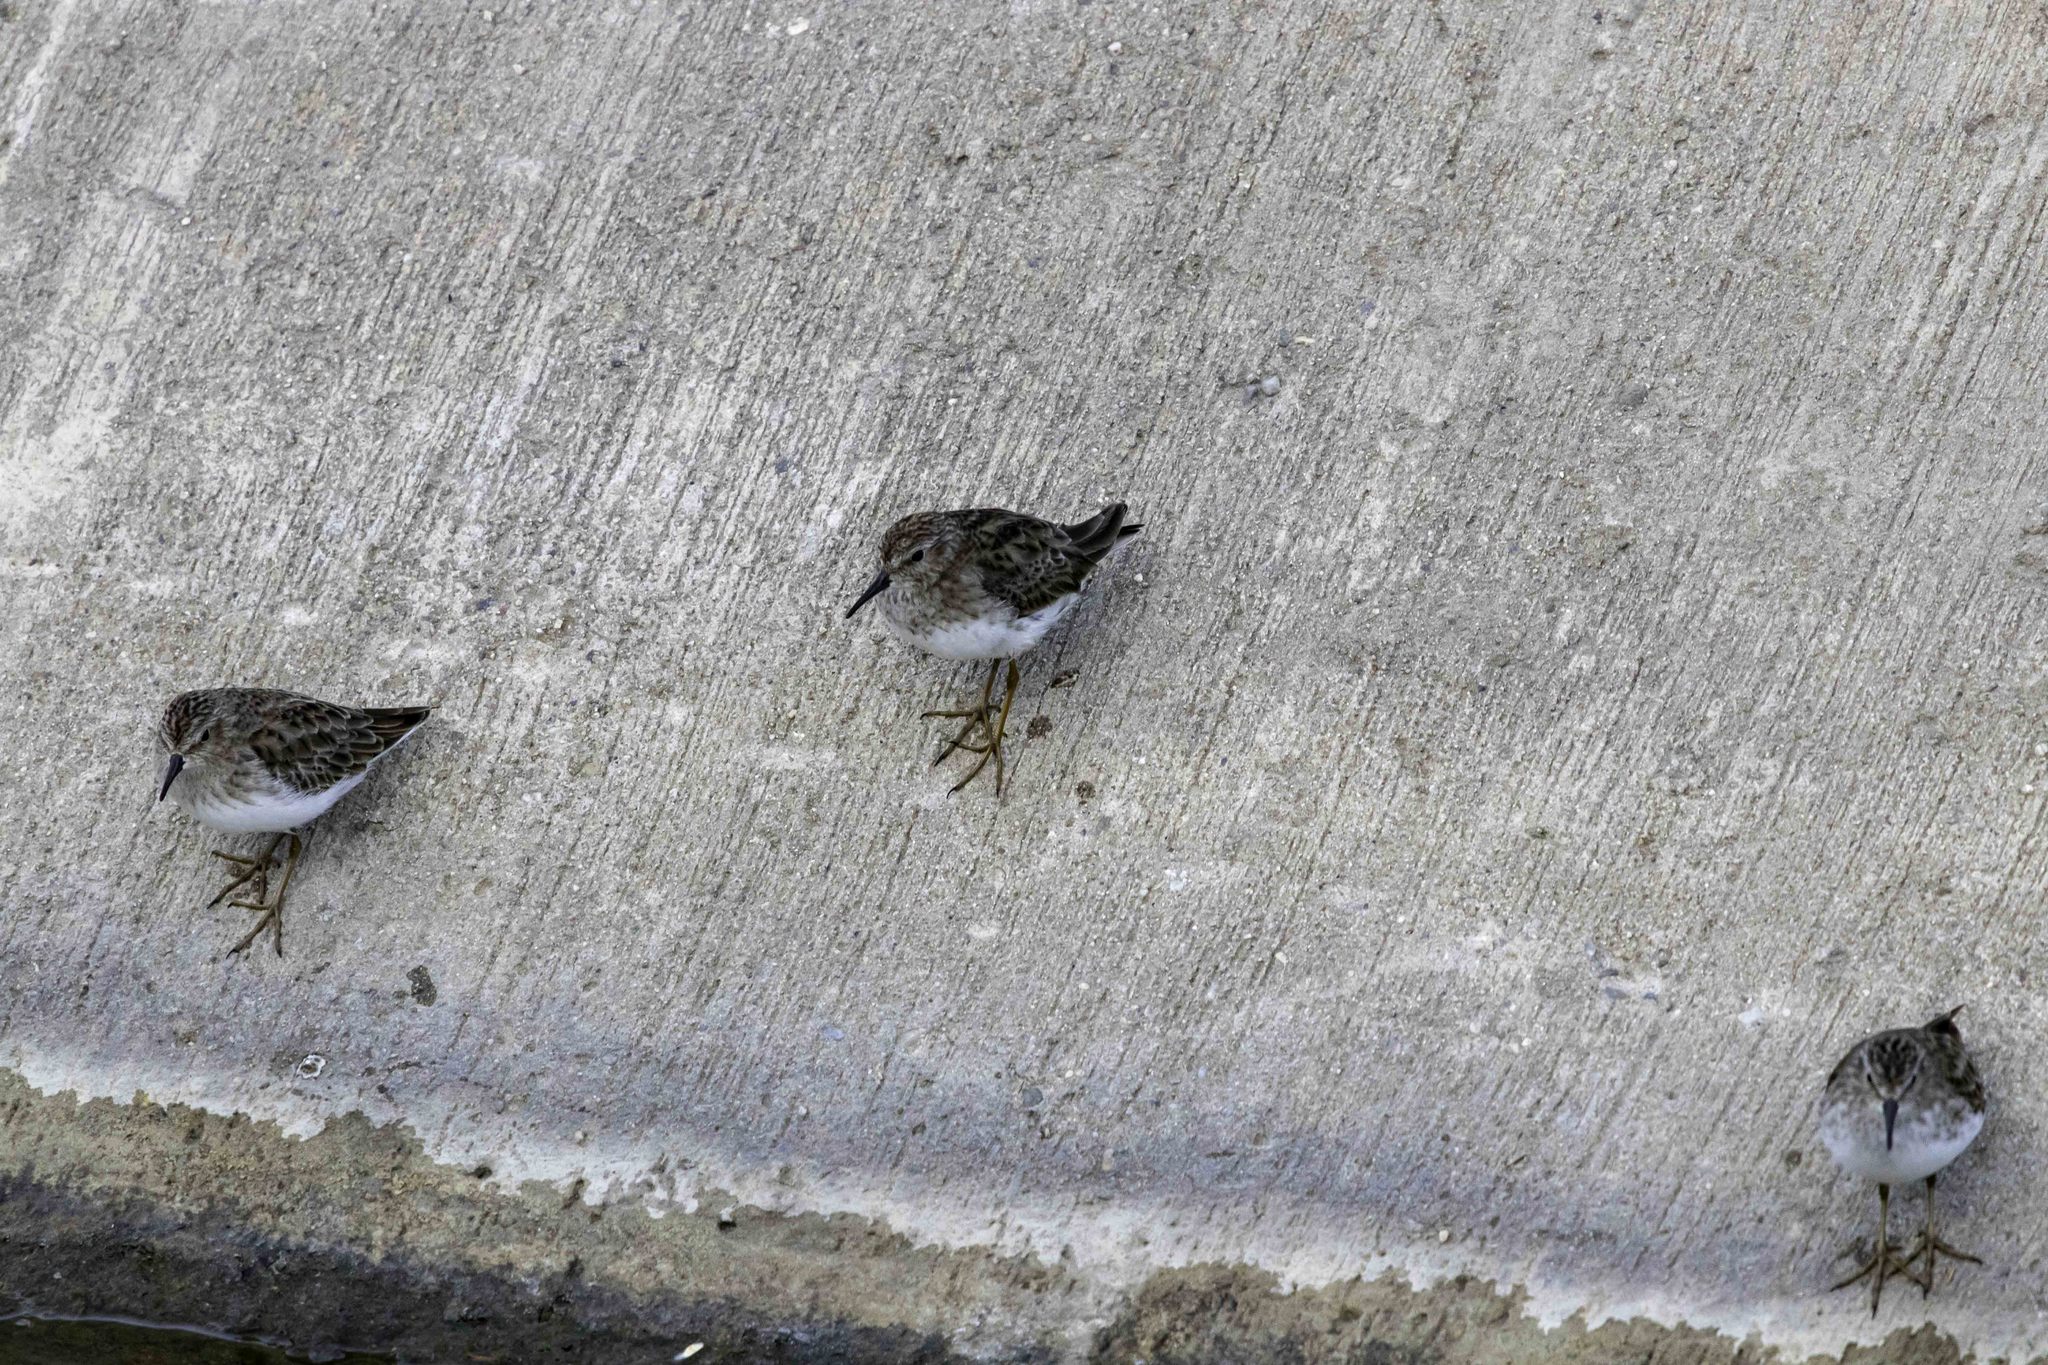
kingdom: Animalia
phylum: Chordata
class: Aves
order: Charadriiformes
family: Scolopacidae
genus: Calidris
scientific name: Calidris minutilla
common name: Least sandpiper
